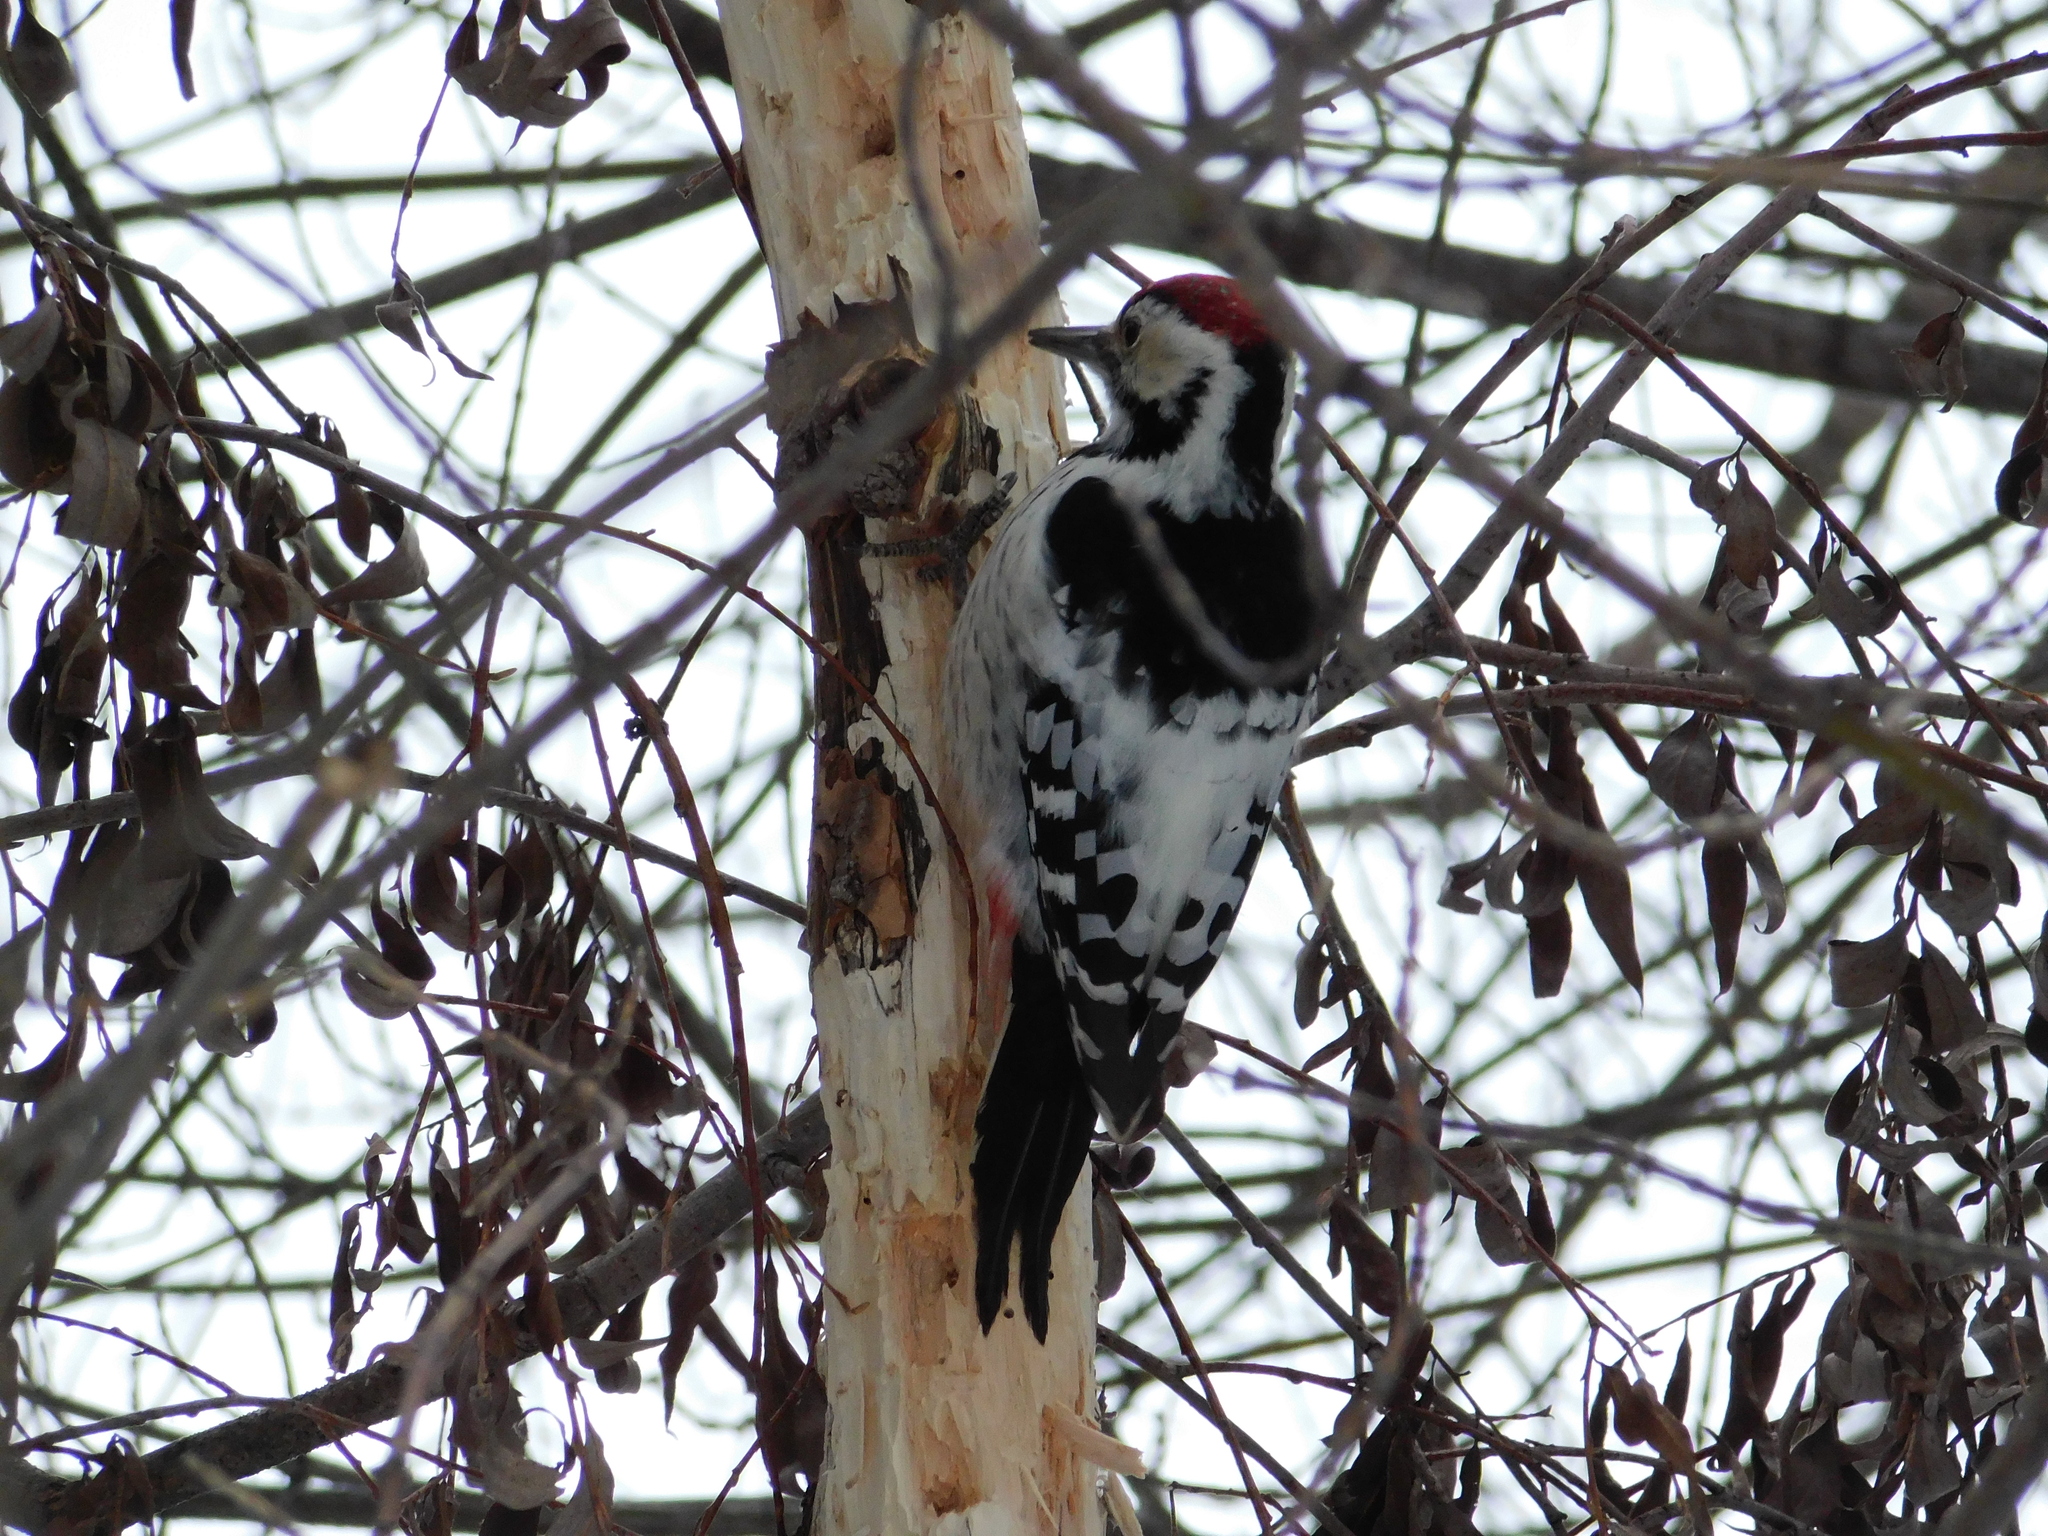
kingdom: Animalia
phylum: Chordata
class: Aves
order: Piciformes
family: Picidae
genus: Dendrocopos
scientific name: Dendrocopos leucotos
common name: White-backed woodpecker
